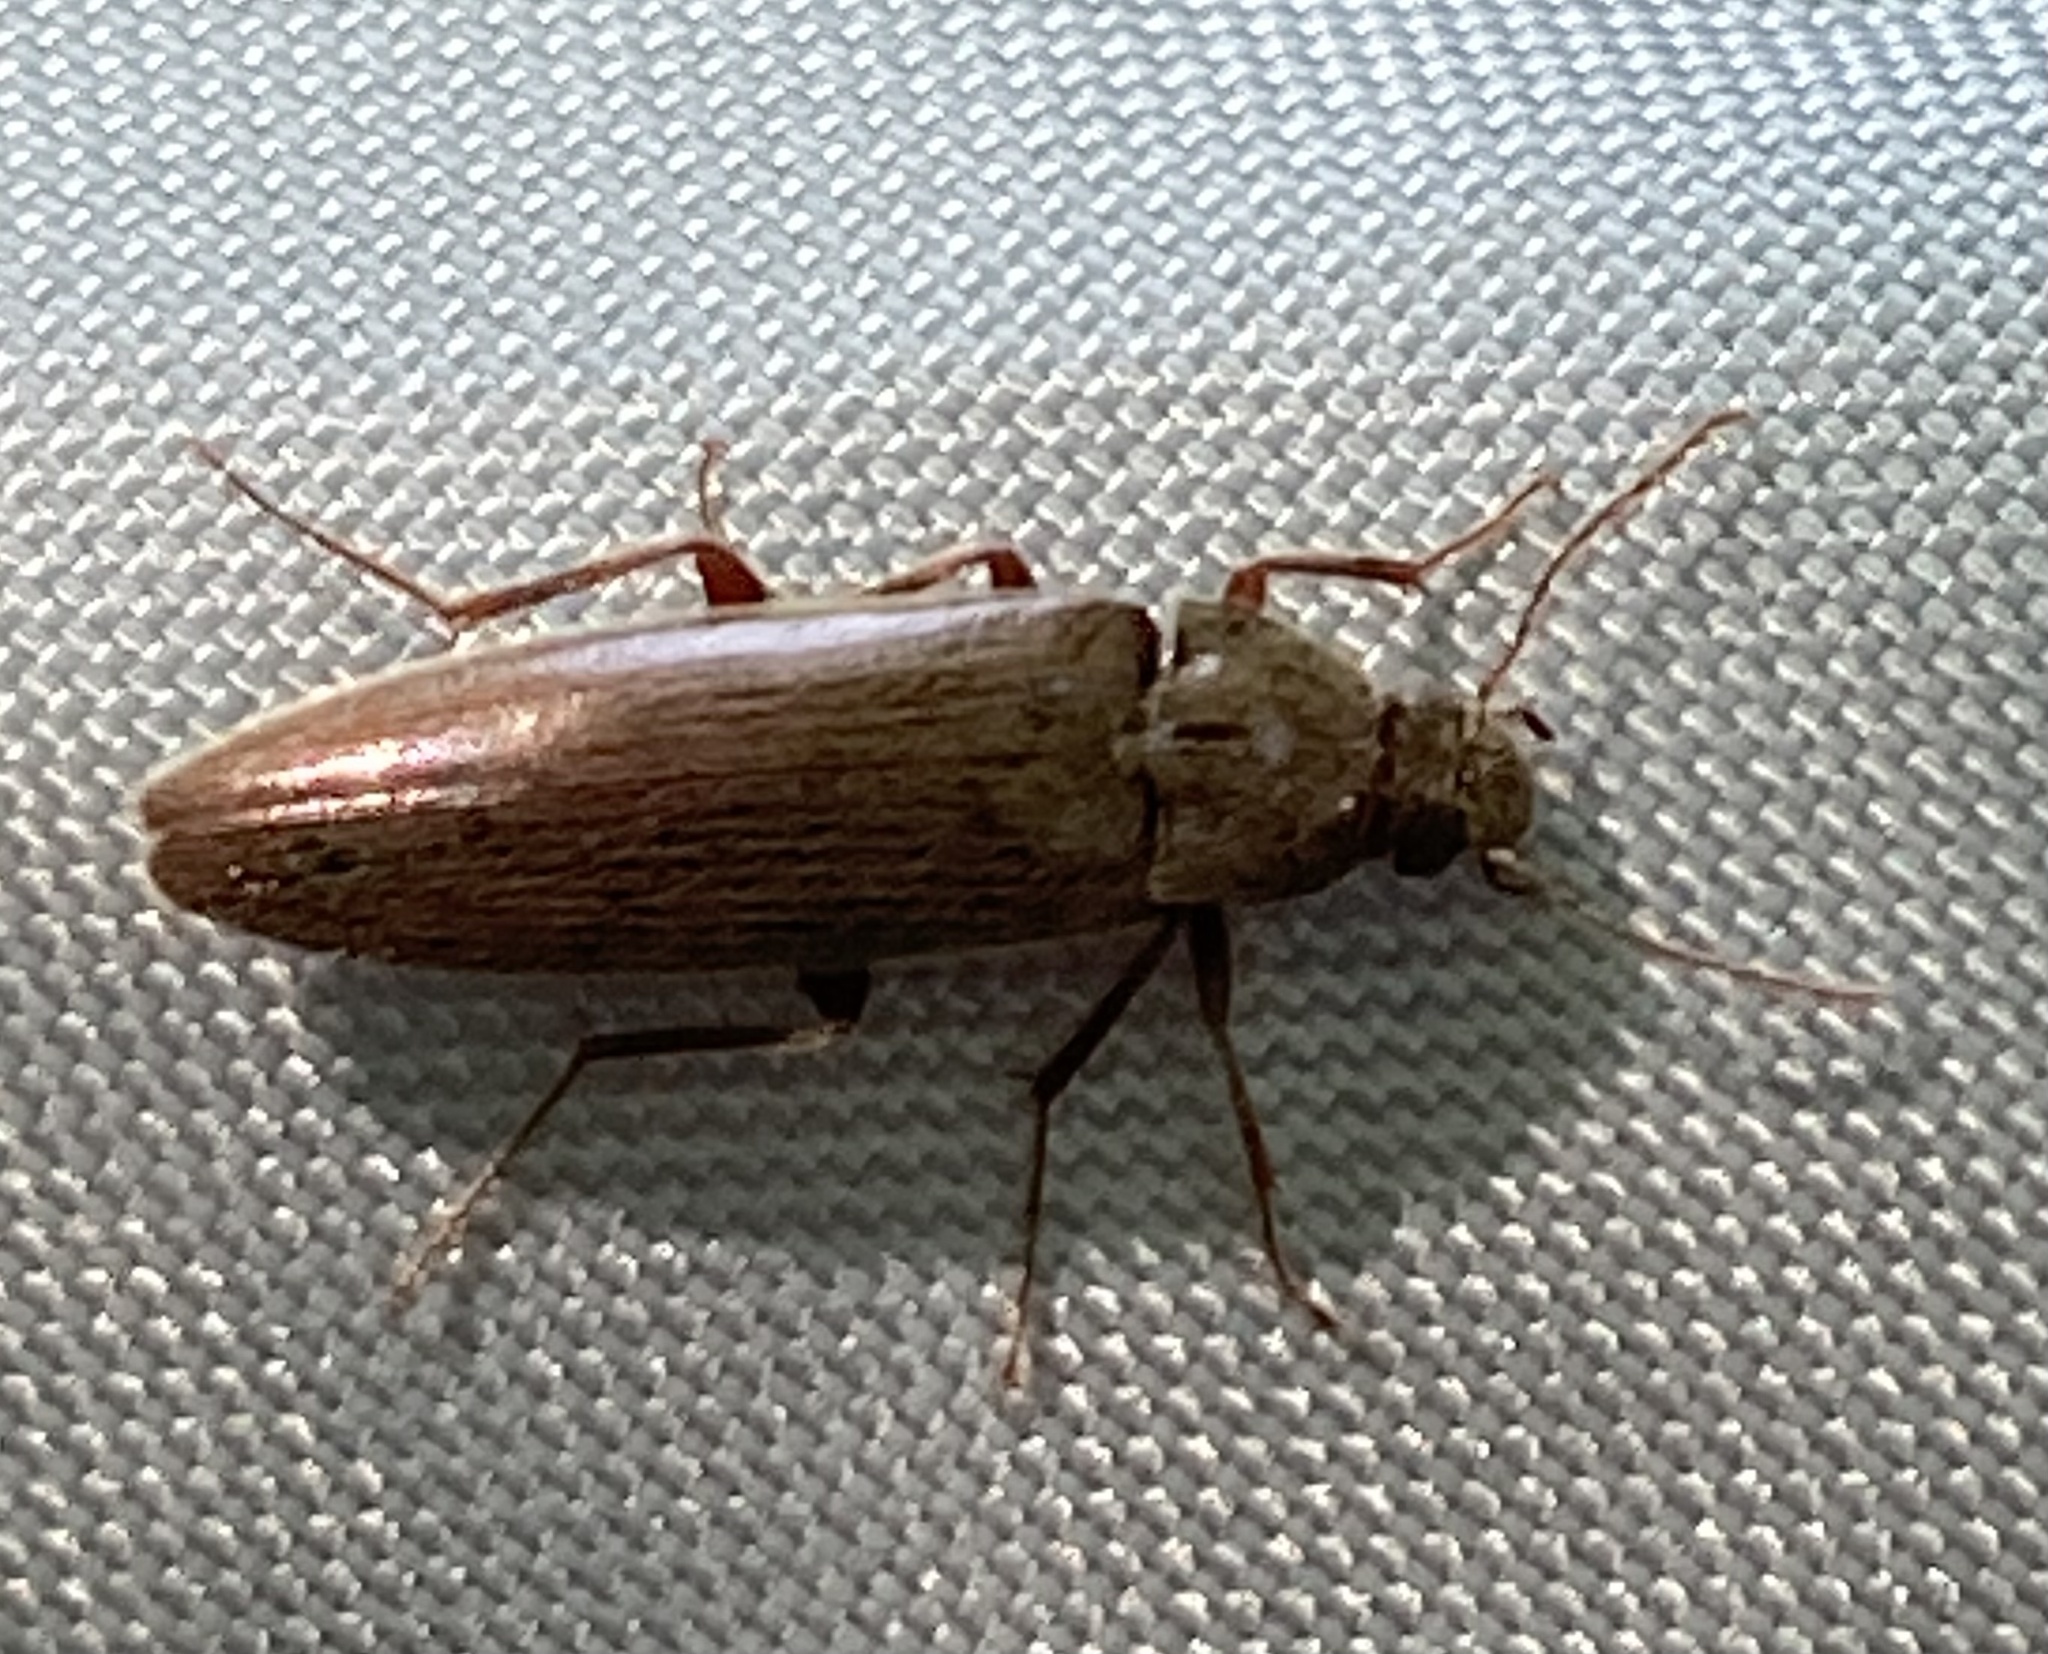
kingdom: Animalia
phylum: Arthropoda
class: Insecta
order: Coleoptera
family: Synchroidae
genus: Synchroa
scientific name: Synchroa punctata
